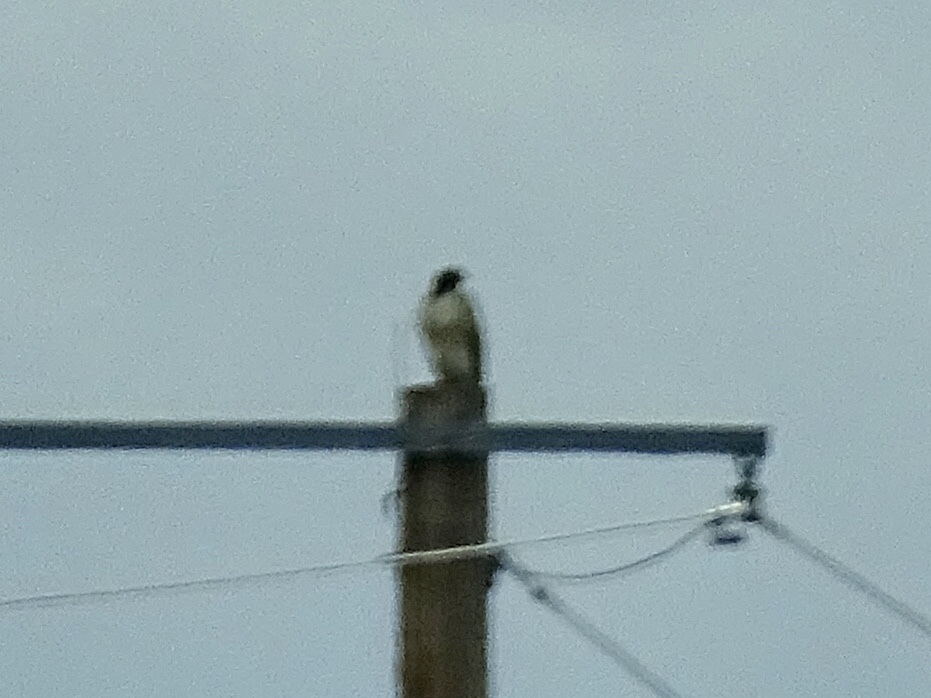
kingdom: Animalia
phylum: Chordata
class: Aves
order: Accipitriformes
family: Accipitridae
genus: Buteo
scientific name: Buteo jamaicensis
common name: Red-tailed hawk
